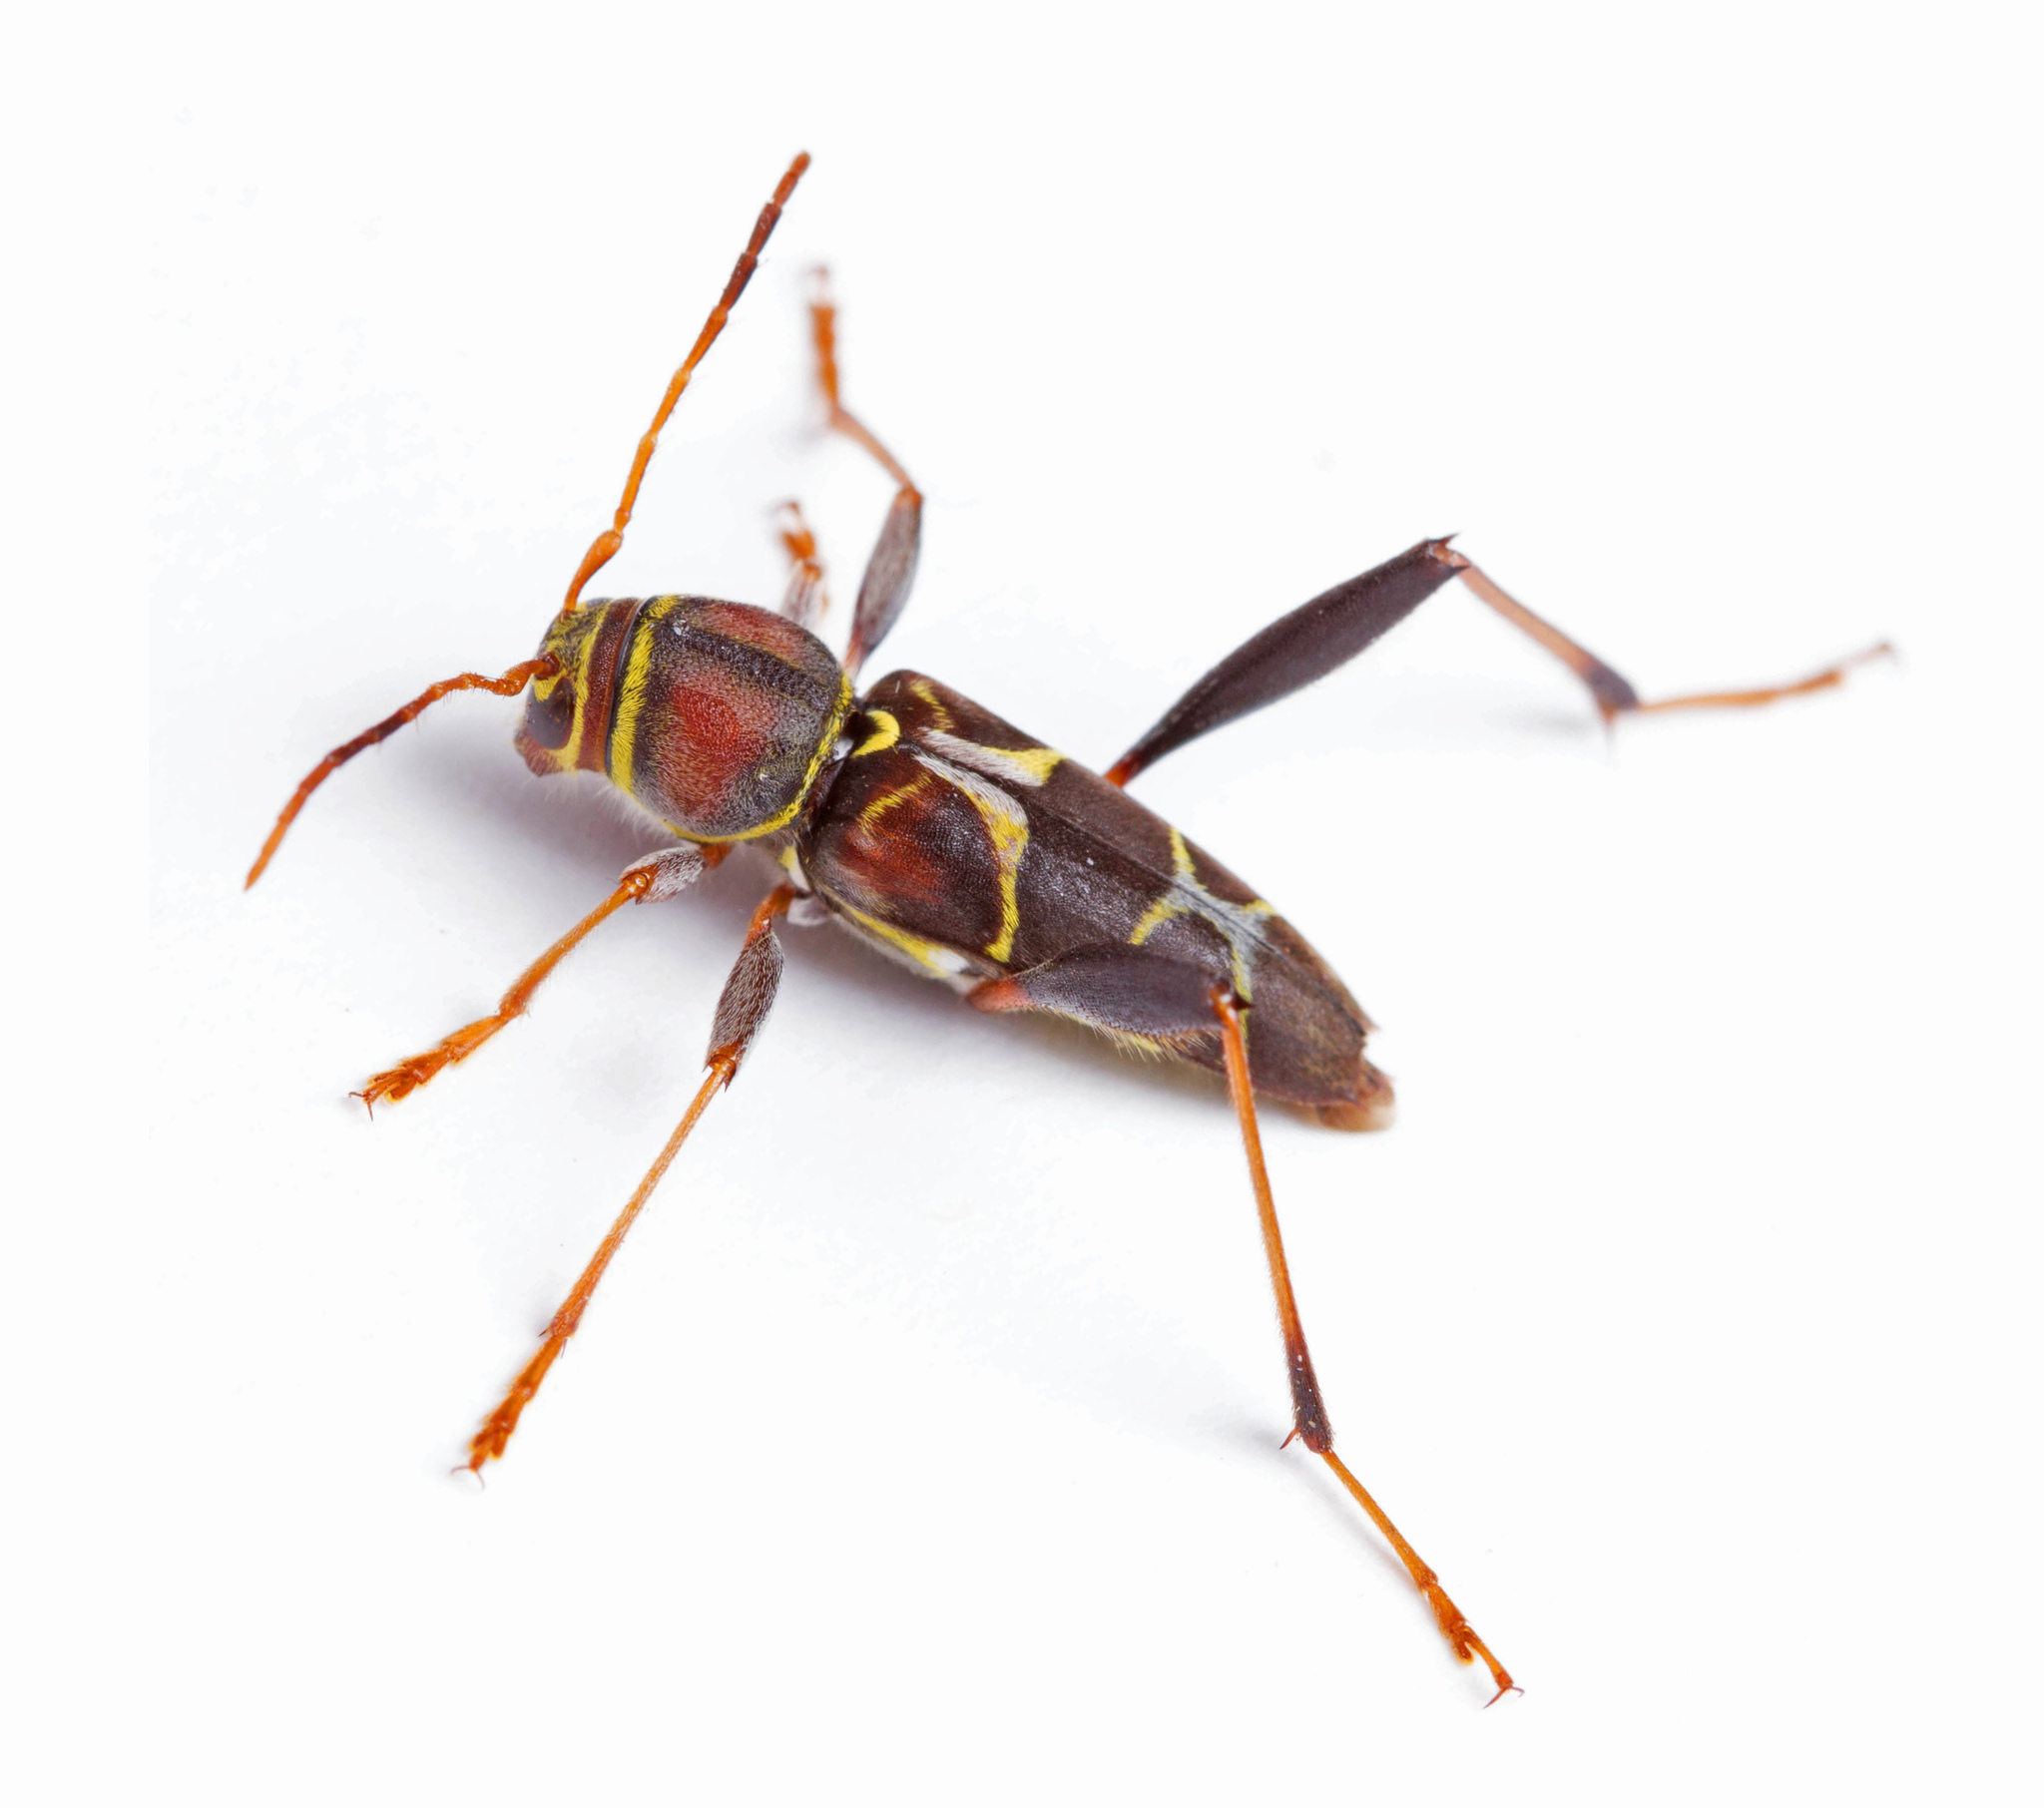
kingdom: Animalia
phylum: Arthropoda
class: Insecta
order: Coleoptera
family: Cerambycidae
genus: Neoclytus
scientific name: Neoclytus mucronatus
